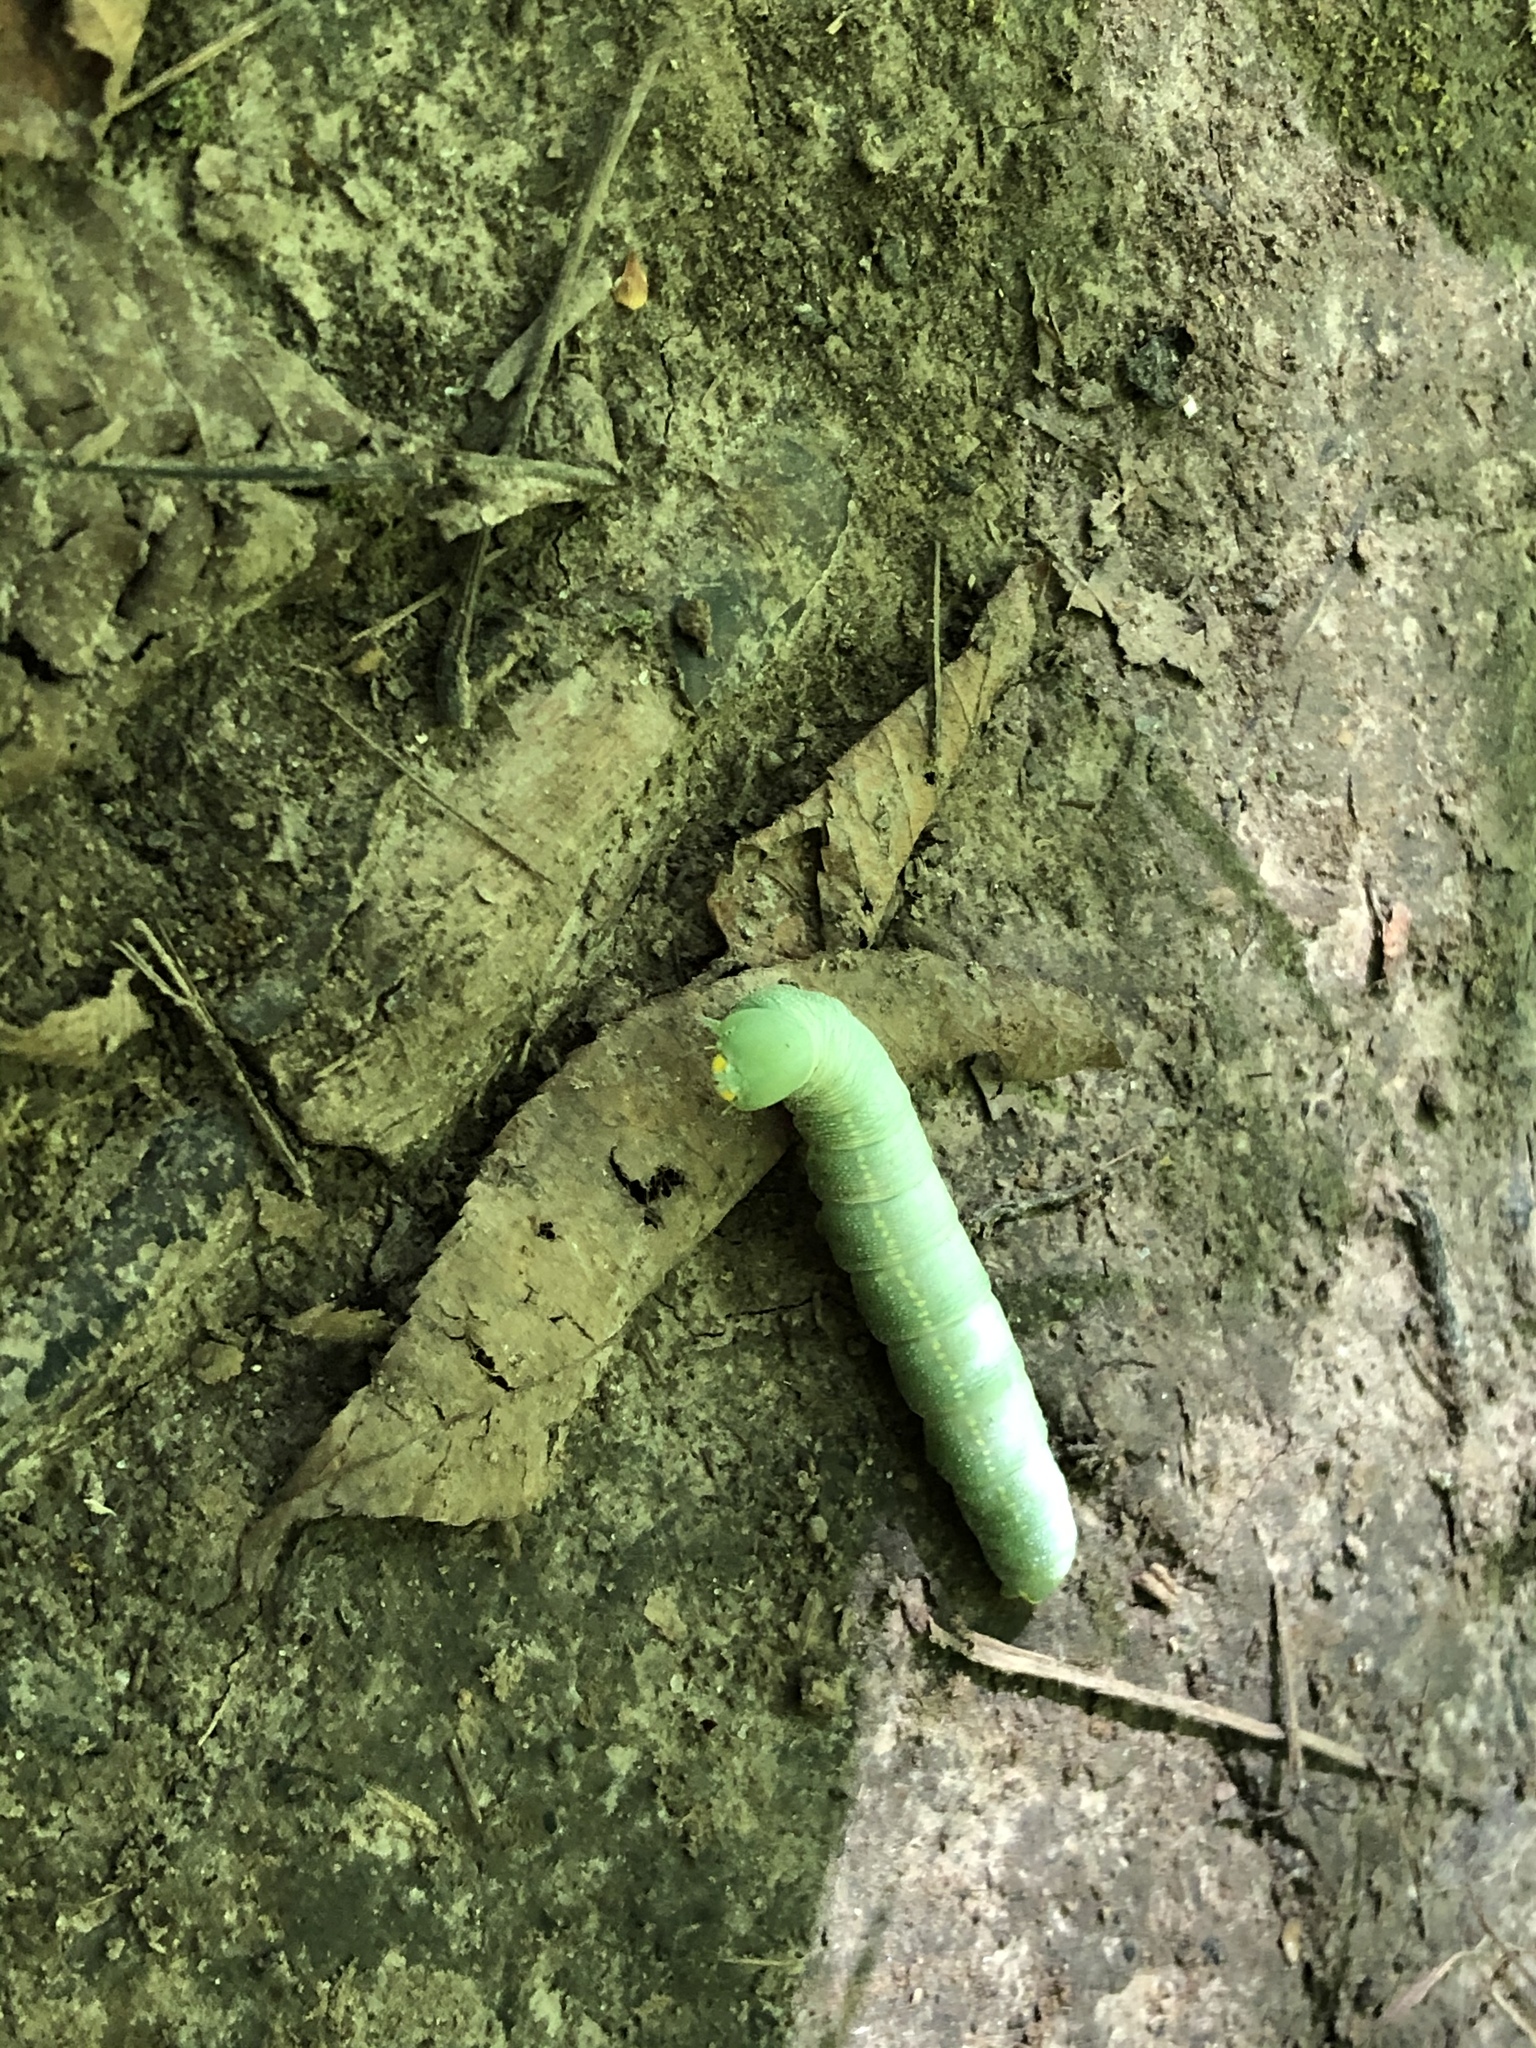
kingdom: Animalia
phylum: Arthropoda
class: Insecta
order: Lepidoptera
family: Notodontidae
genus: Nadata
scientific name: Nadata gibbosa
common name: White-dotted prominent
